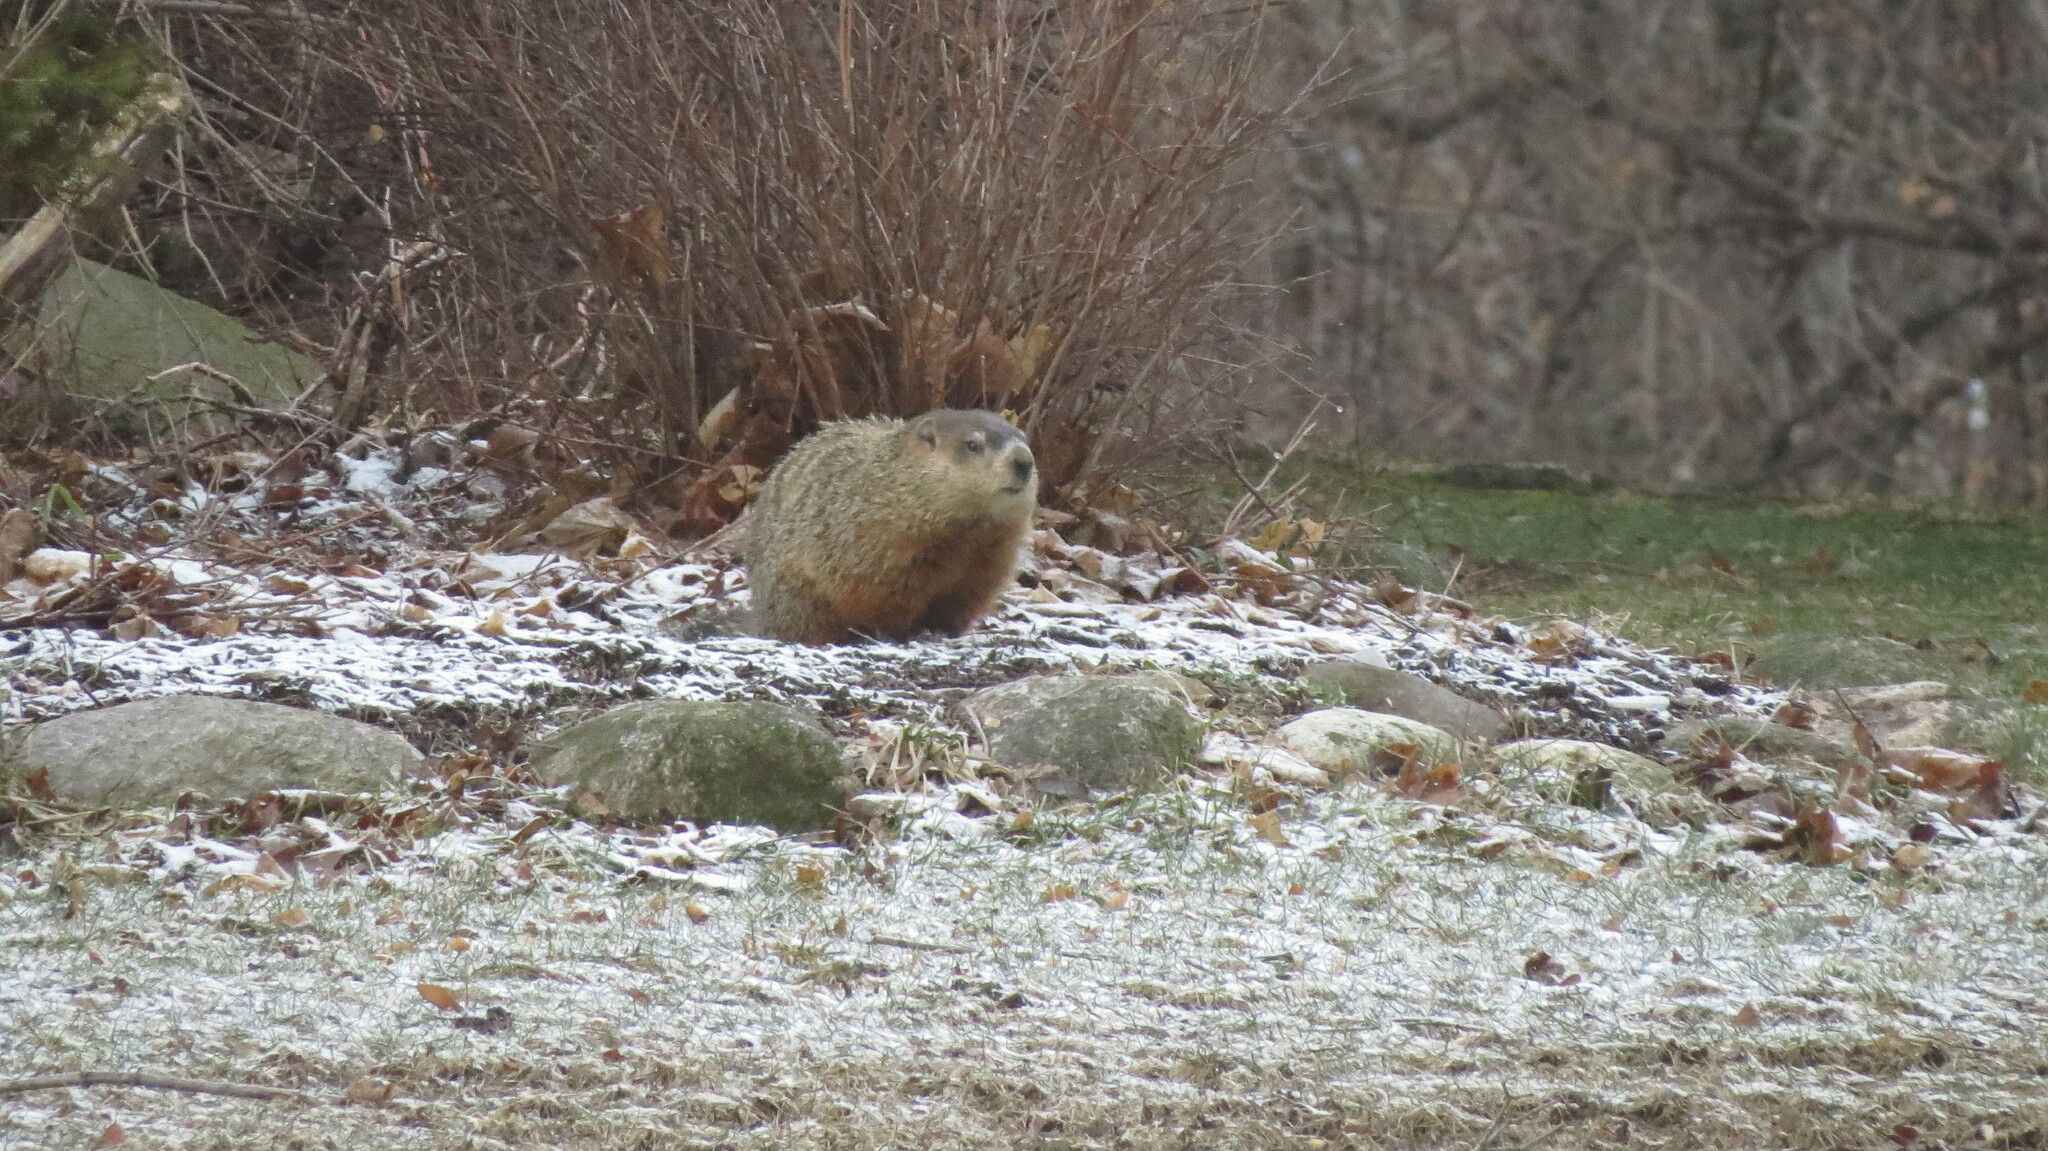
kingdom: Animalia
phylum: Chordata
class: Mammalia
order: Rodentia
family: Sciuridae
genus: Marmota
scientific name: Marmota monax
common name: Groundhog
